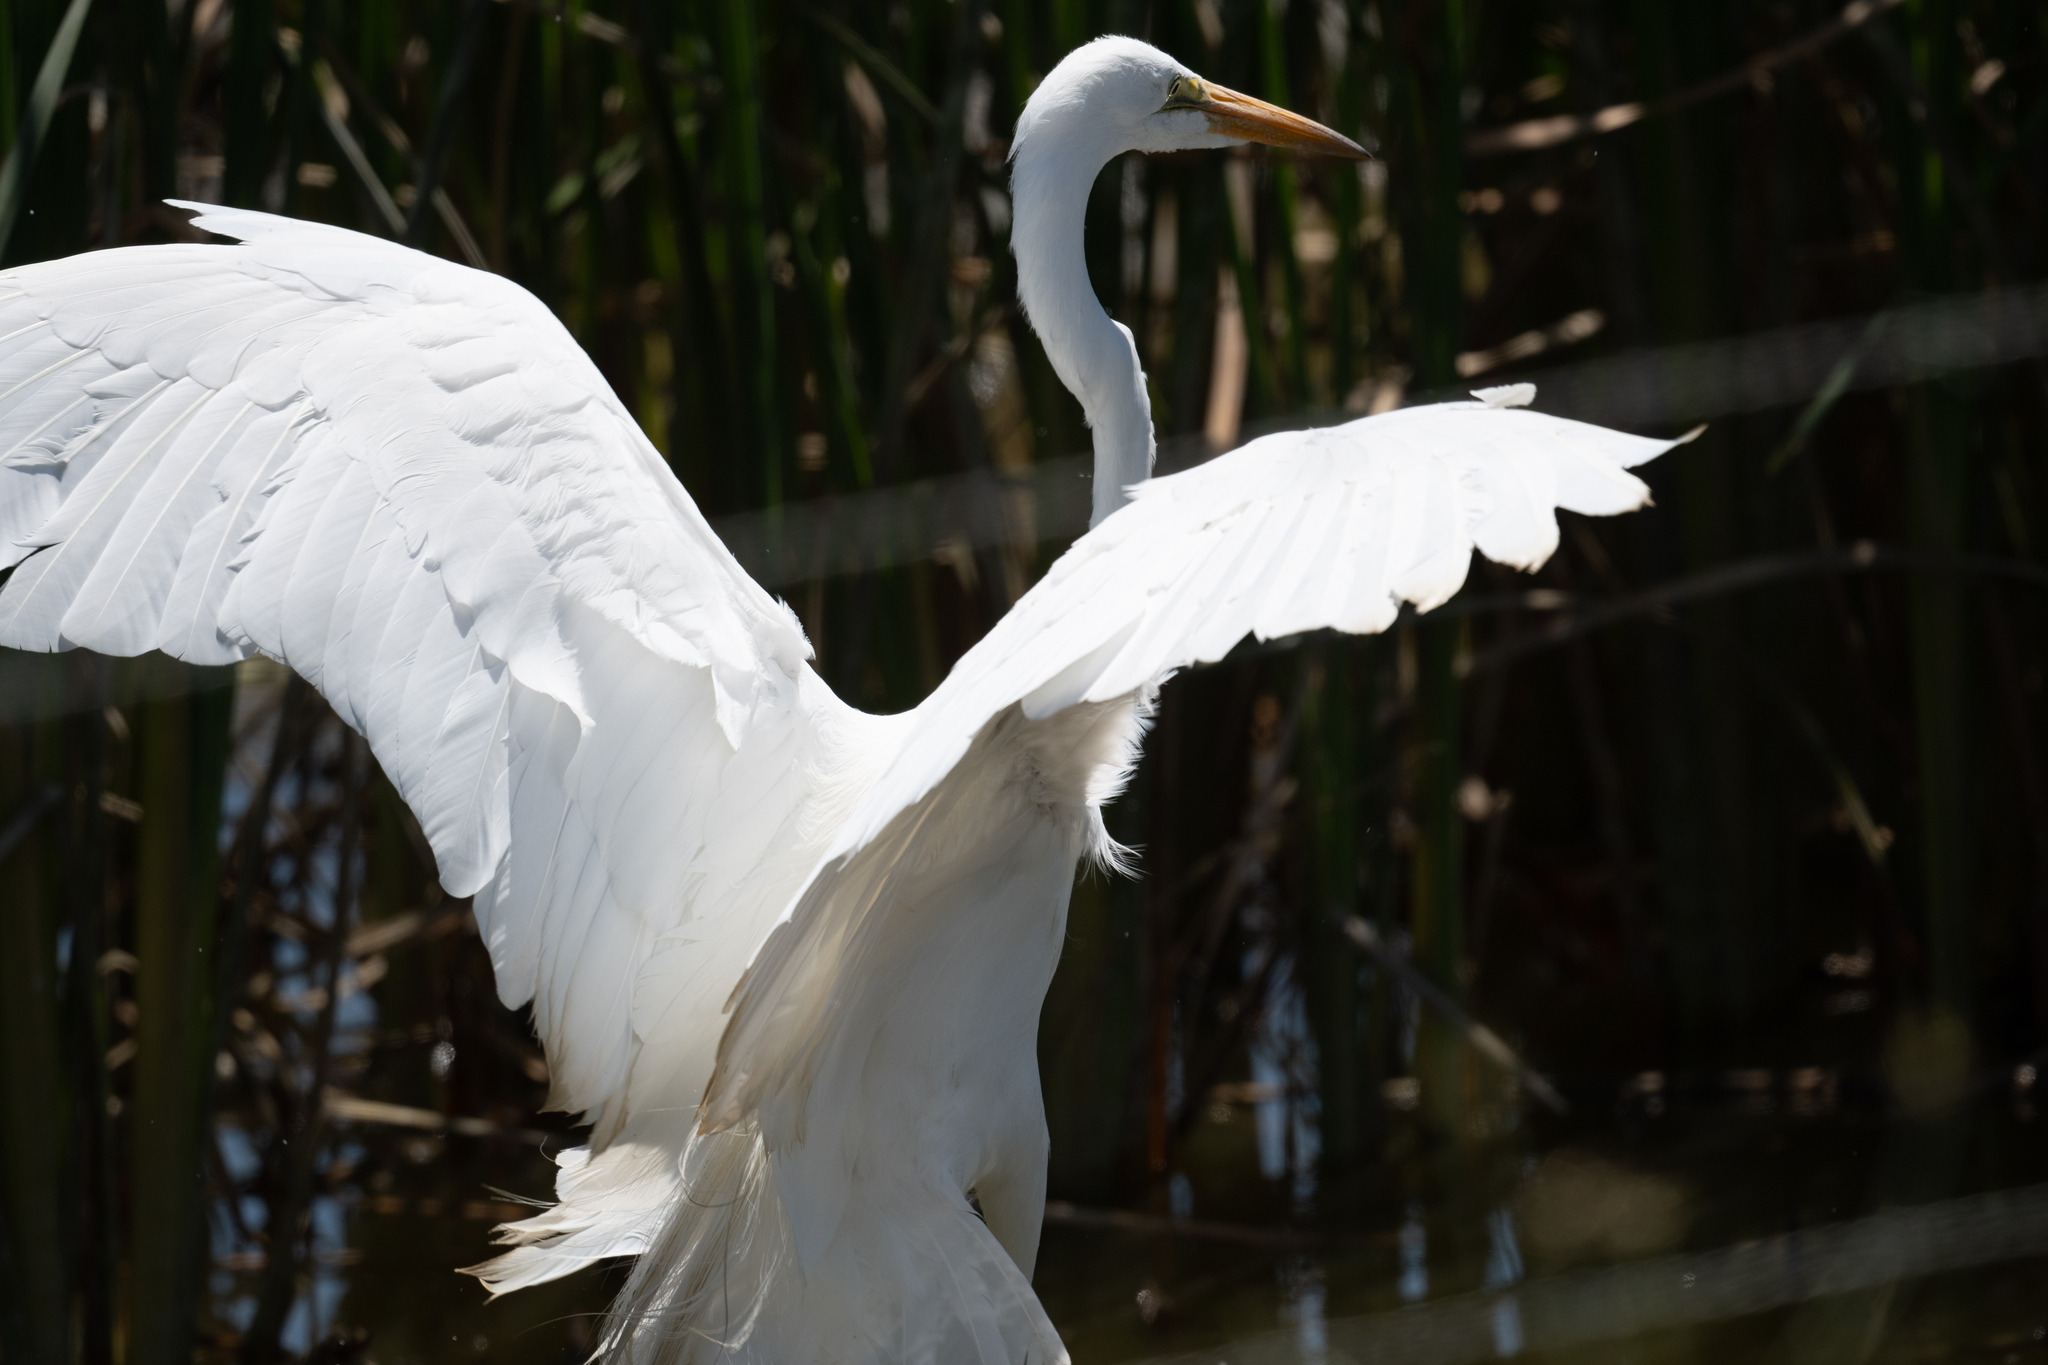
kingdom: Animalia
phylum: Chordata
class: Aves
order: Pelecaniformes
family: Ardeidae
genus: Ardea
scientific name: Ardea alba
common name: Great egret
